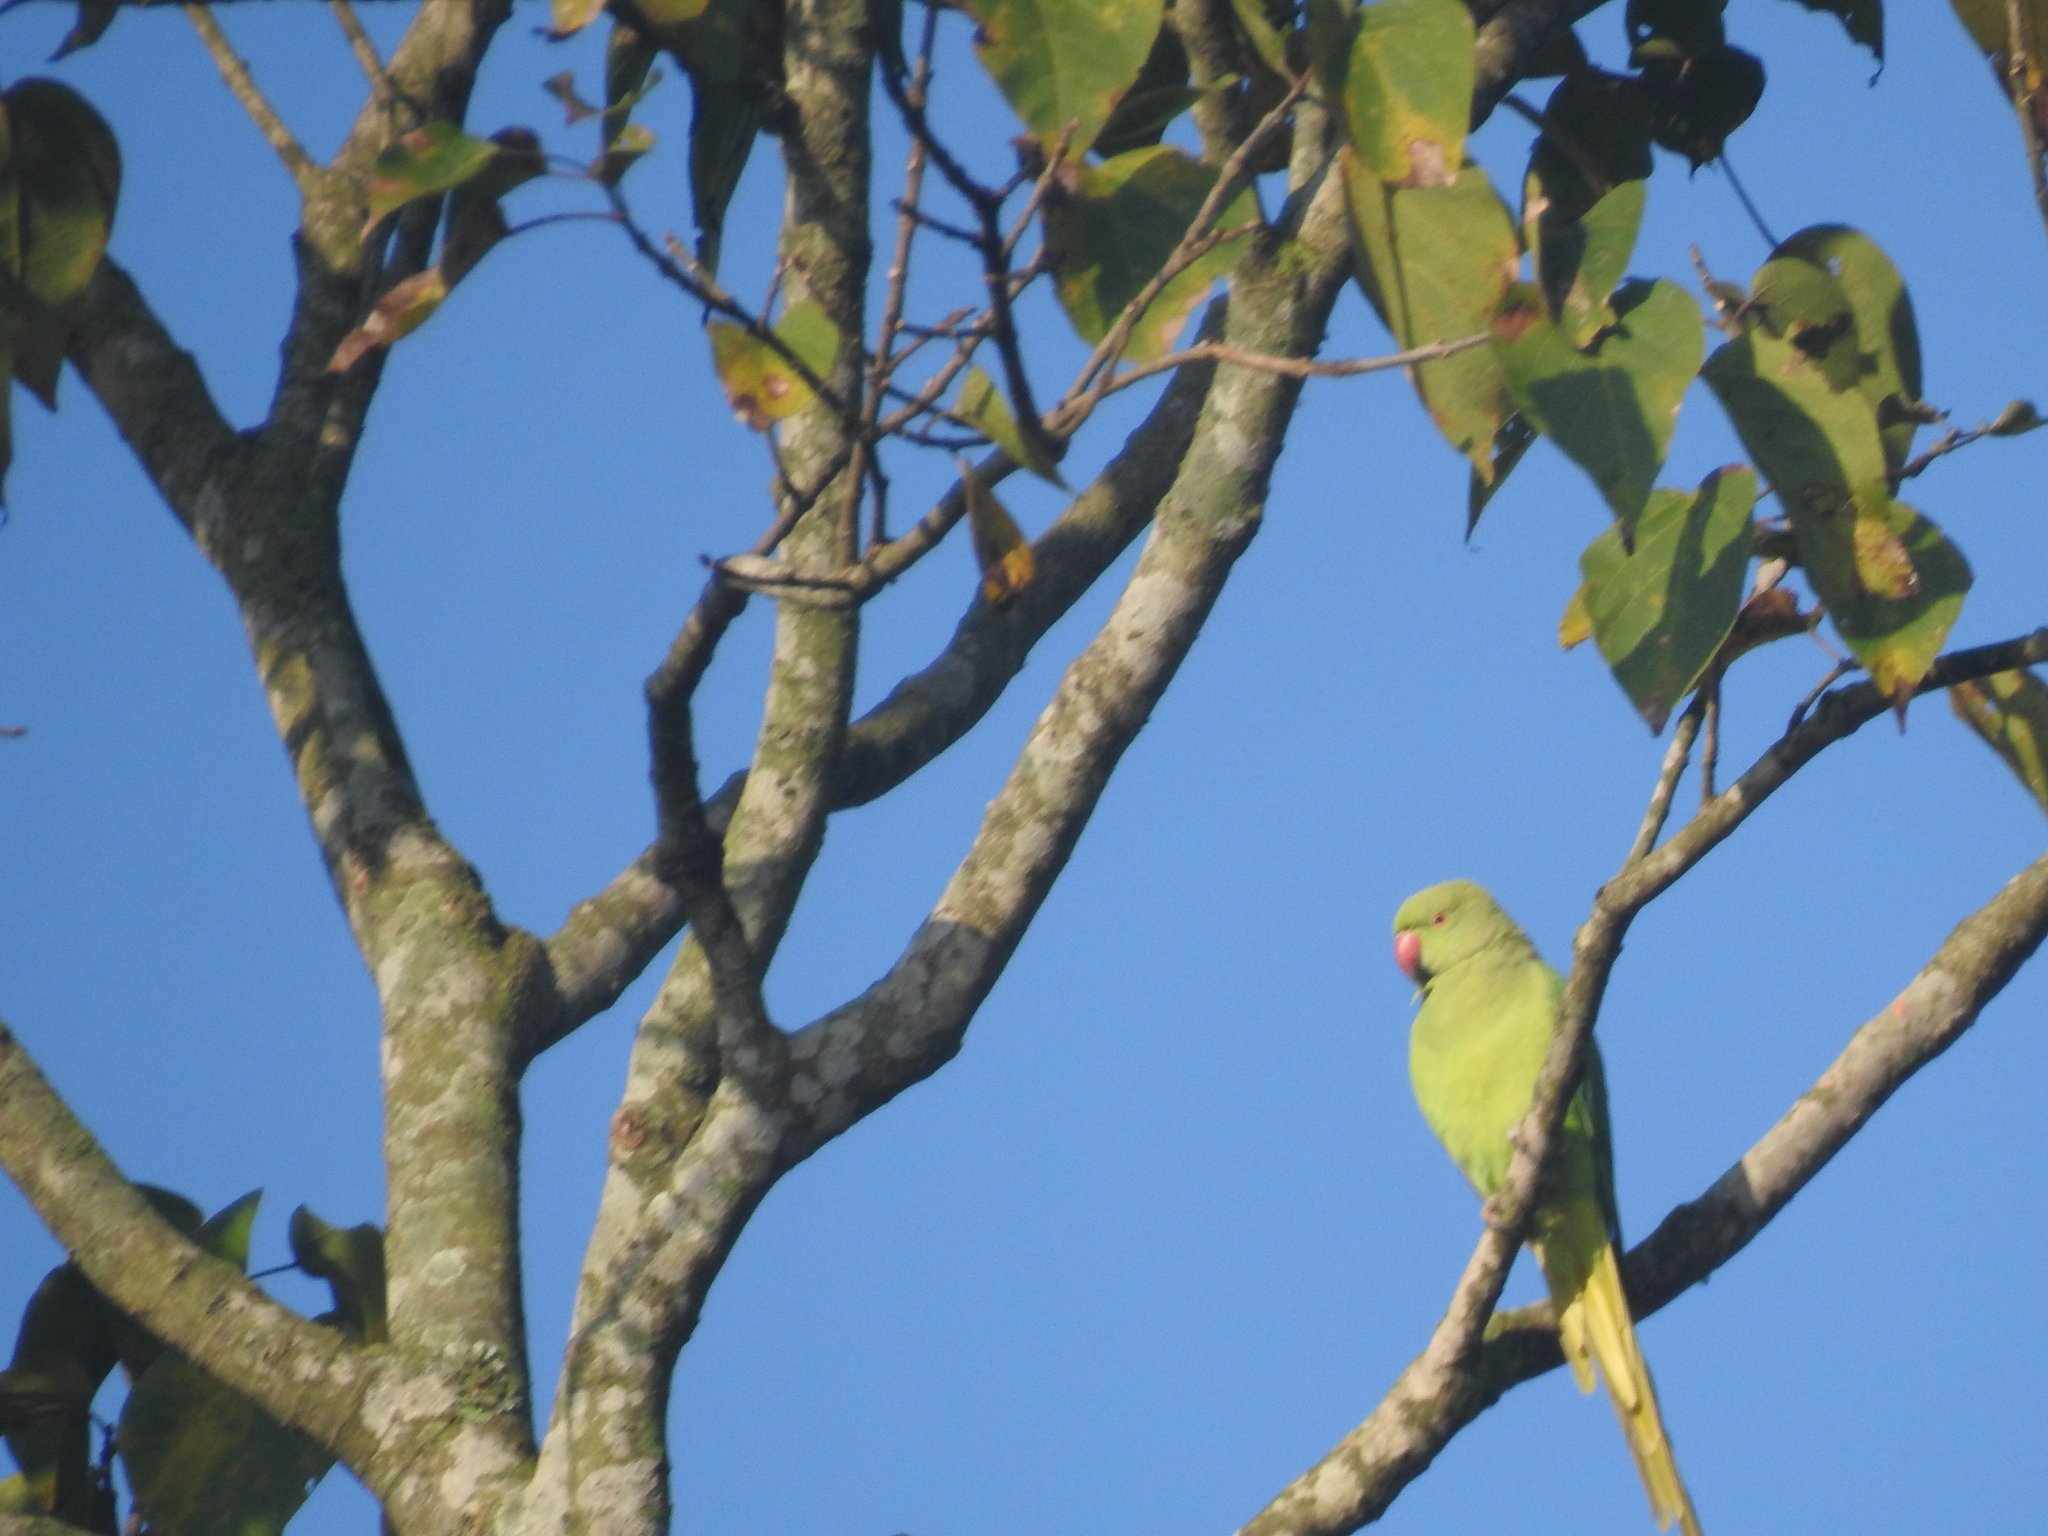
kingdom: Animalia
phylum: Chordata
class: Aves
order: Psittaciformes
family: Psittacidae
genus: Psittacula
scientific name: Psittacula krameri
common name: Rose-ringed parakeet
